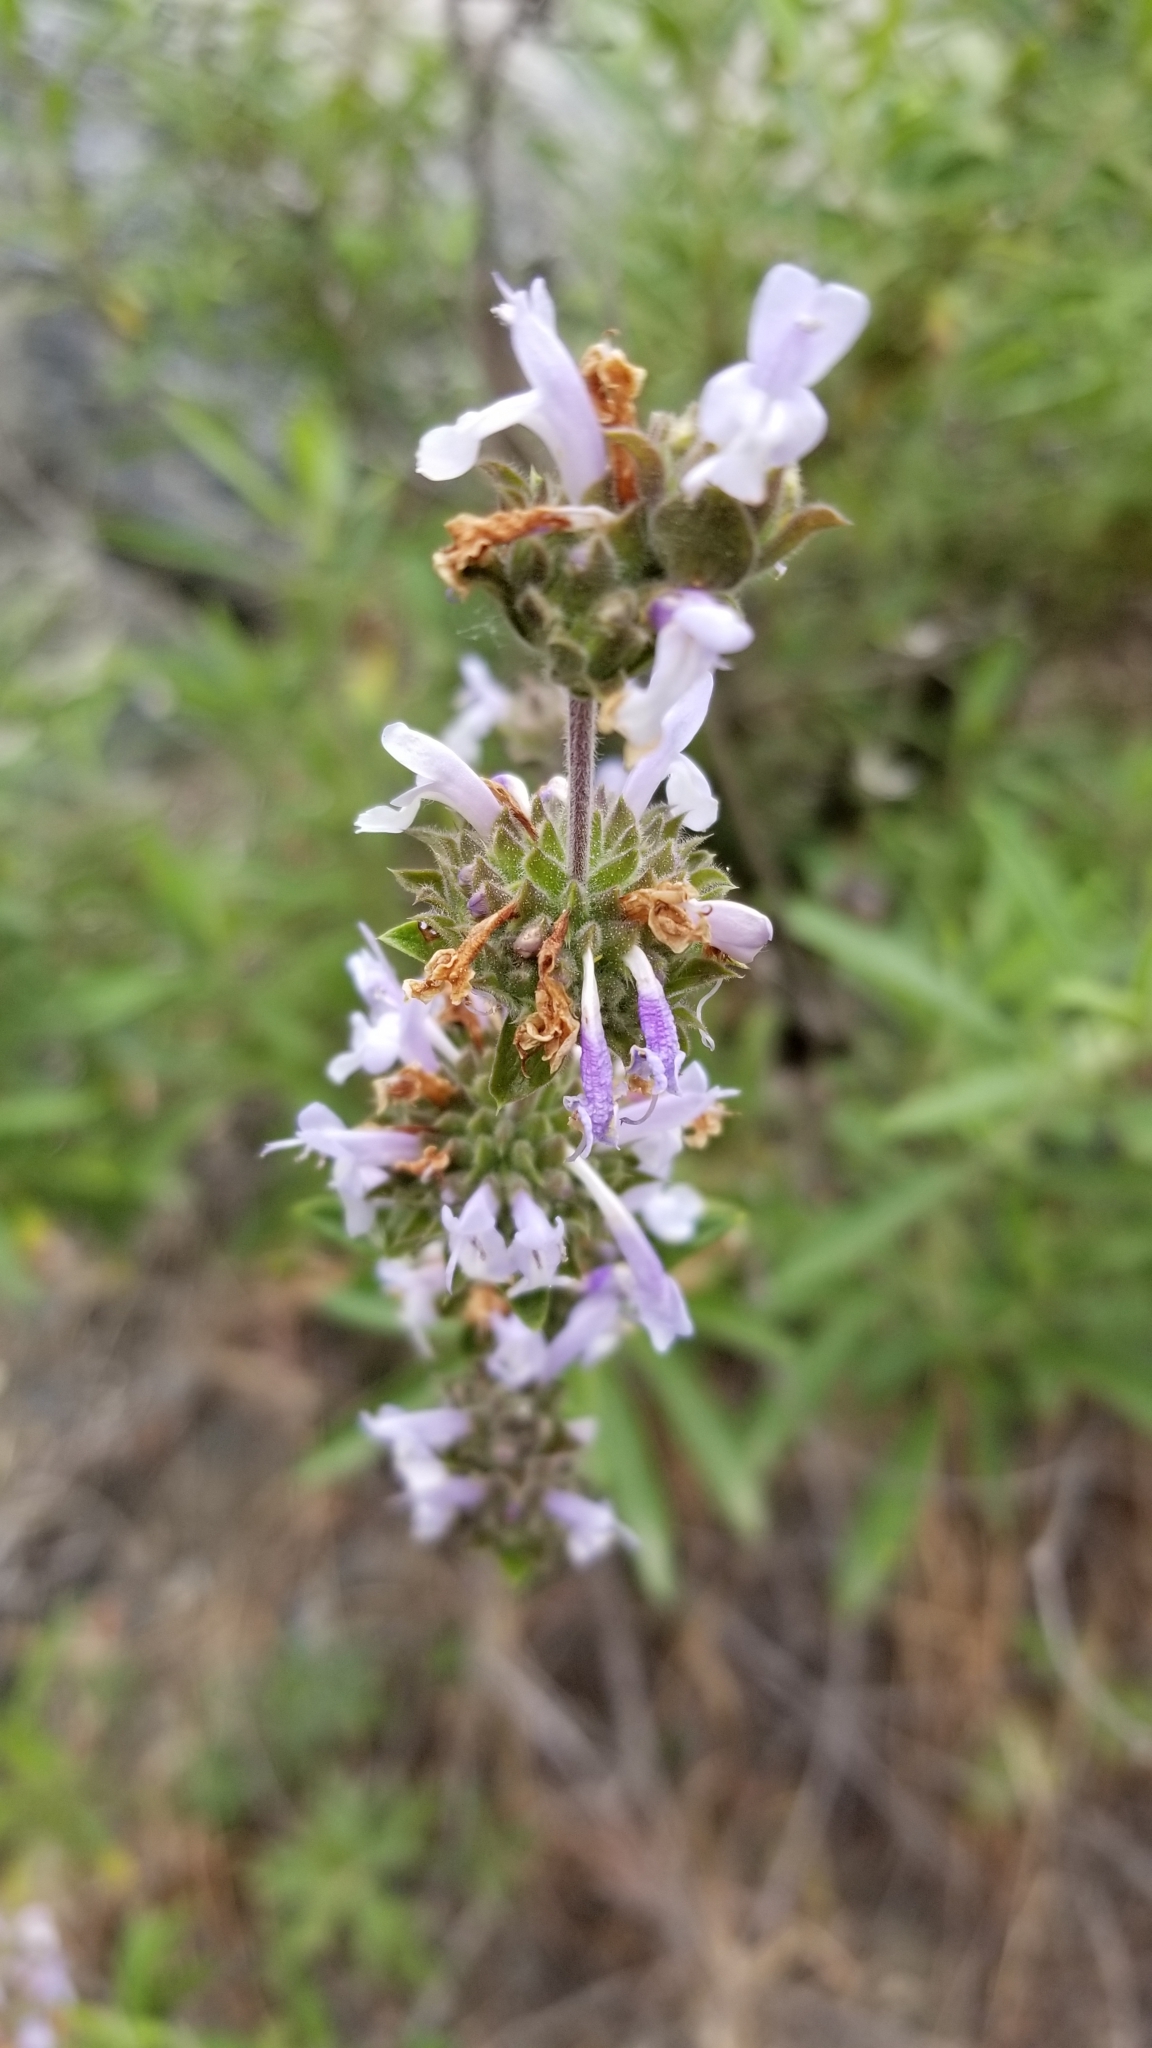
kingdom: Plantae
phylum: Tracheophyta
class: Magnoliopsida
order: Lamiales
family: Lamiaceae
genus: Salvia
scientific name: Salvia mellifera
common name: Black sage
